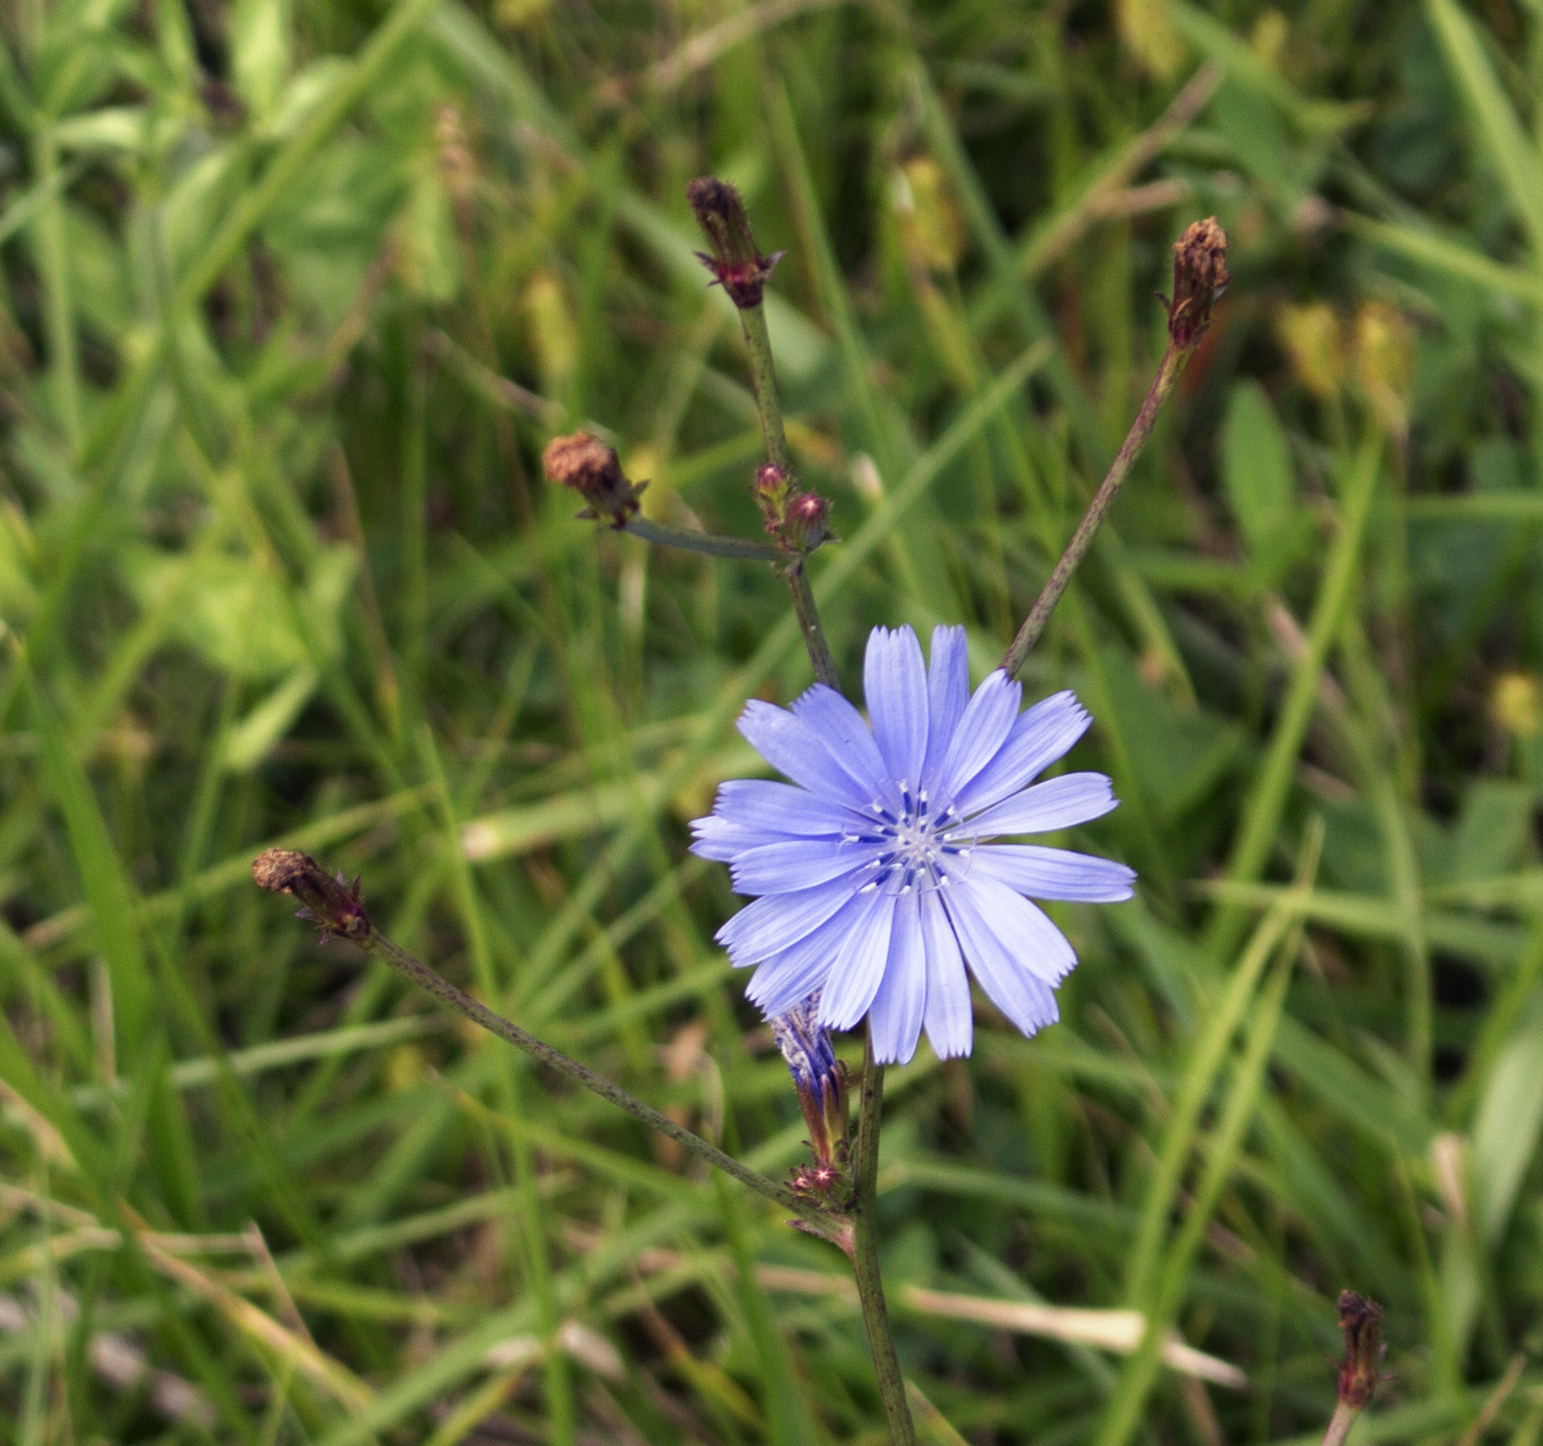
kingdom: Plantae
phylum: Tracheophyta
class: Magnoliopsida
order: Asterales
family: Asteraceae
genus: Cichorium
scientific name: Cichorium intybus
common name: Chicory
